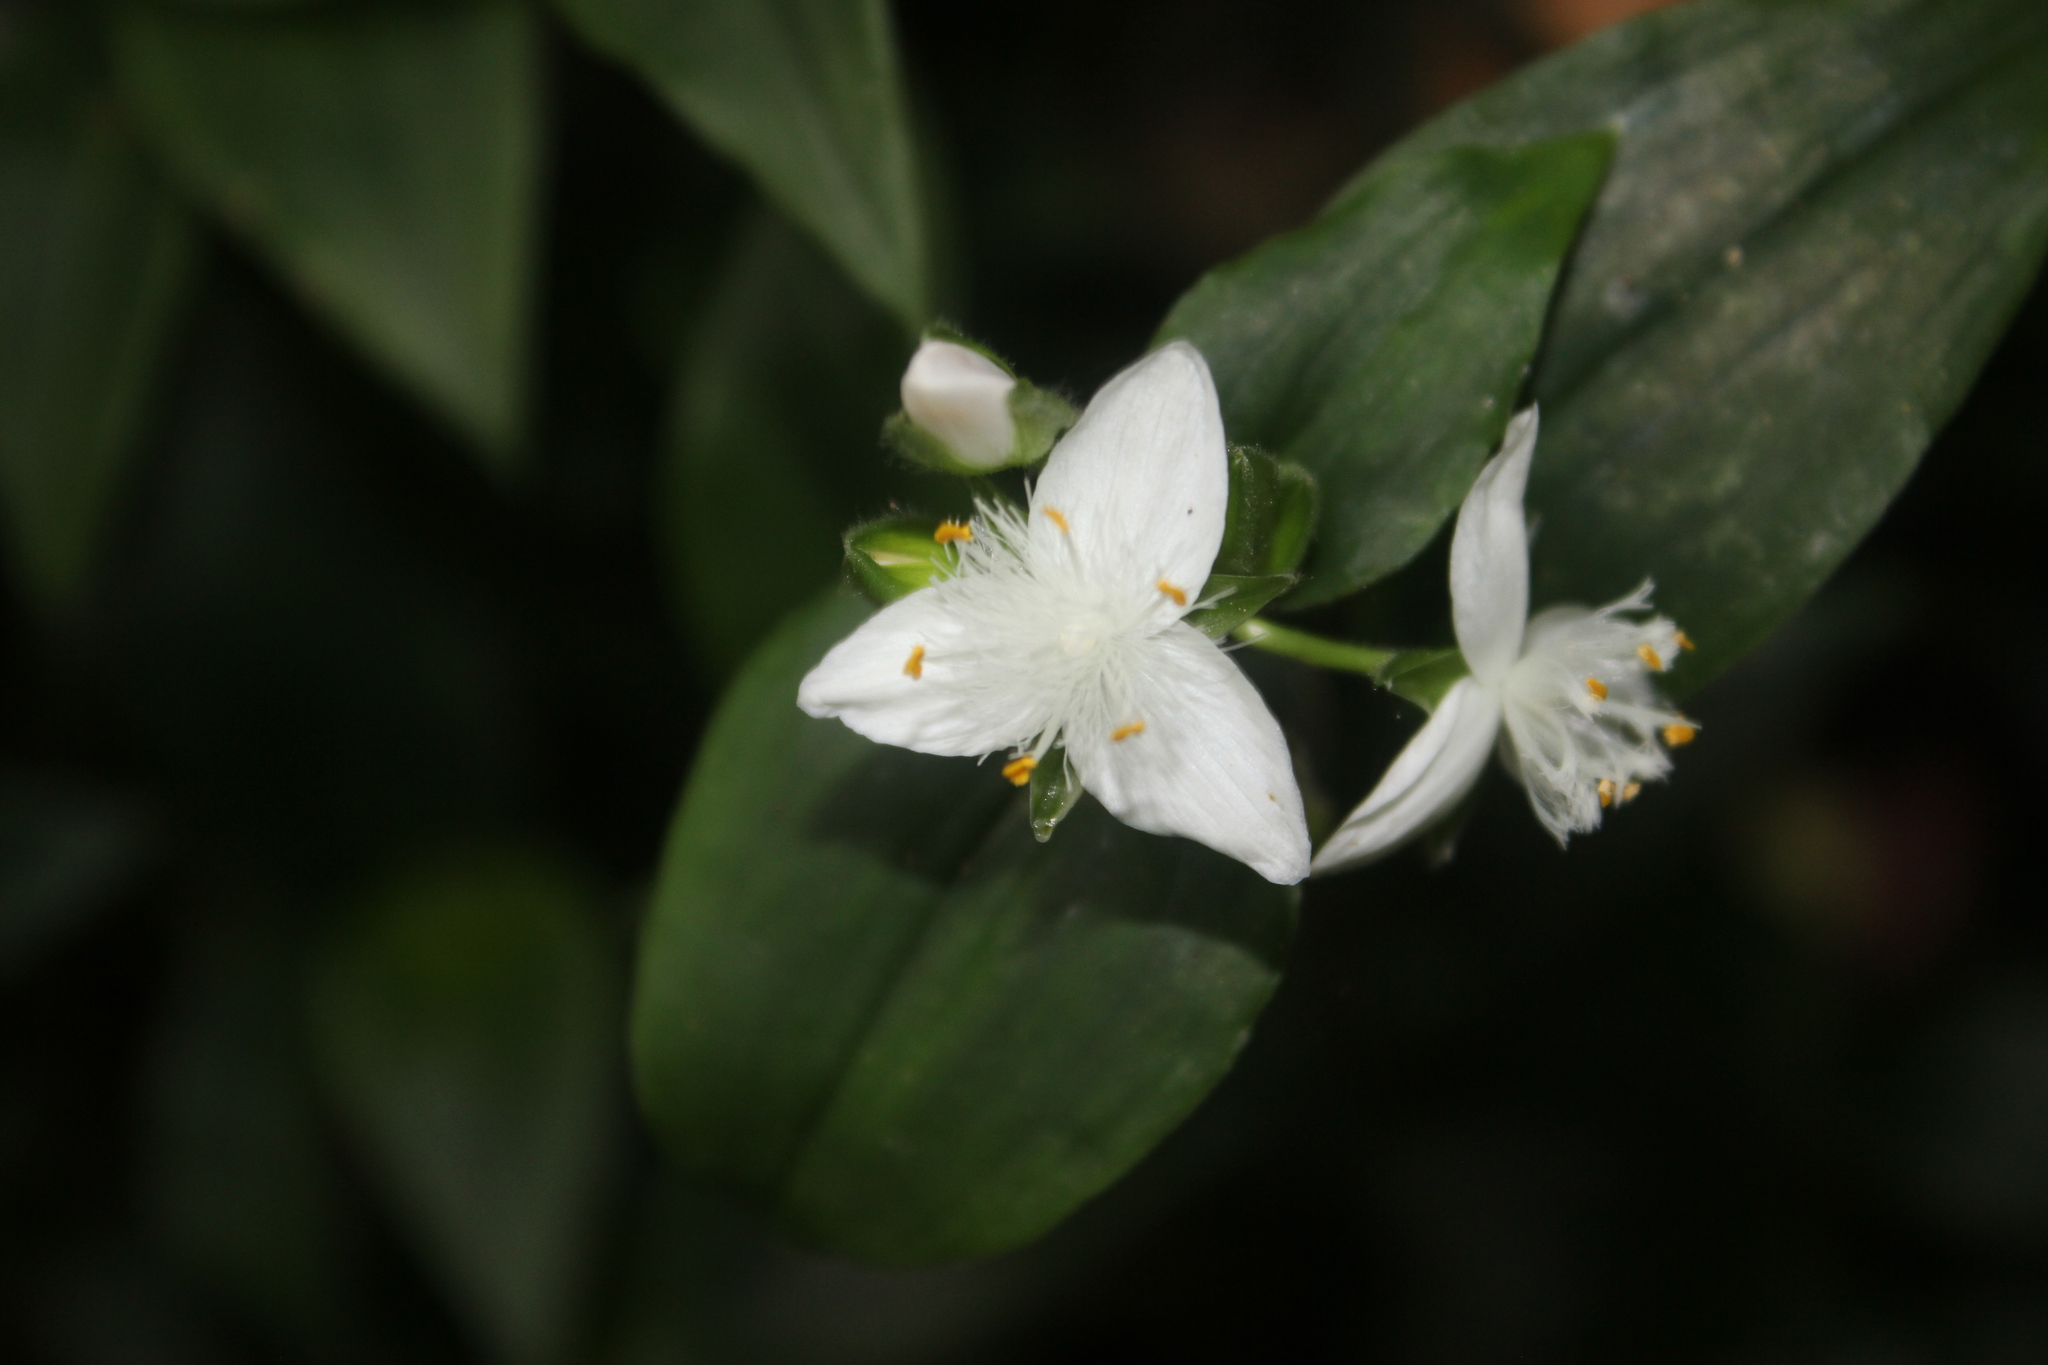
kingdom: Plantae
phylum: Tracheophyta
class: Liliopsida
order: Commelinales
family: Commelinaceae
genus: Tradescantia
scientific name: Tradescantia fluminensis
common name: Wandering-jew
